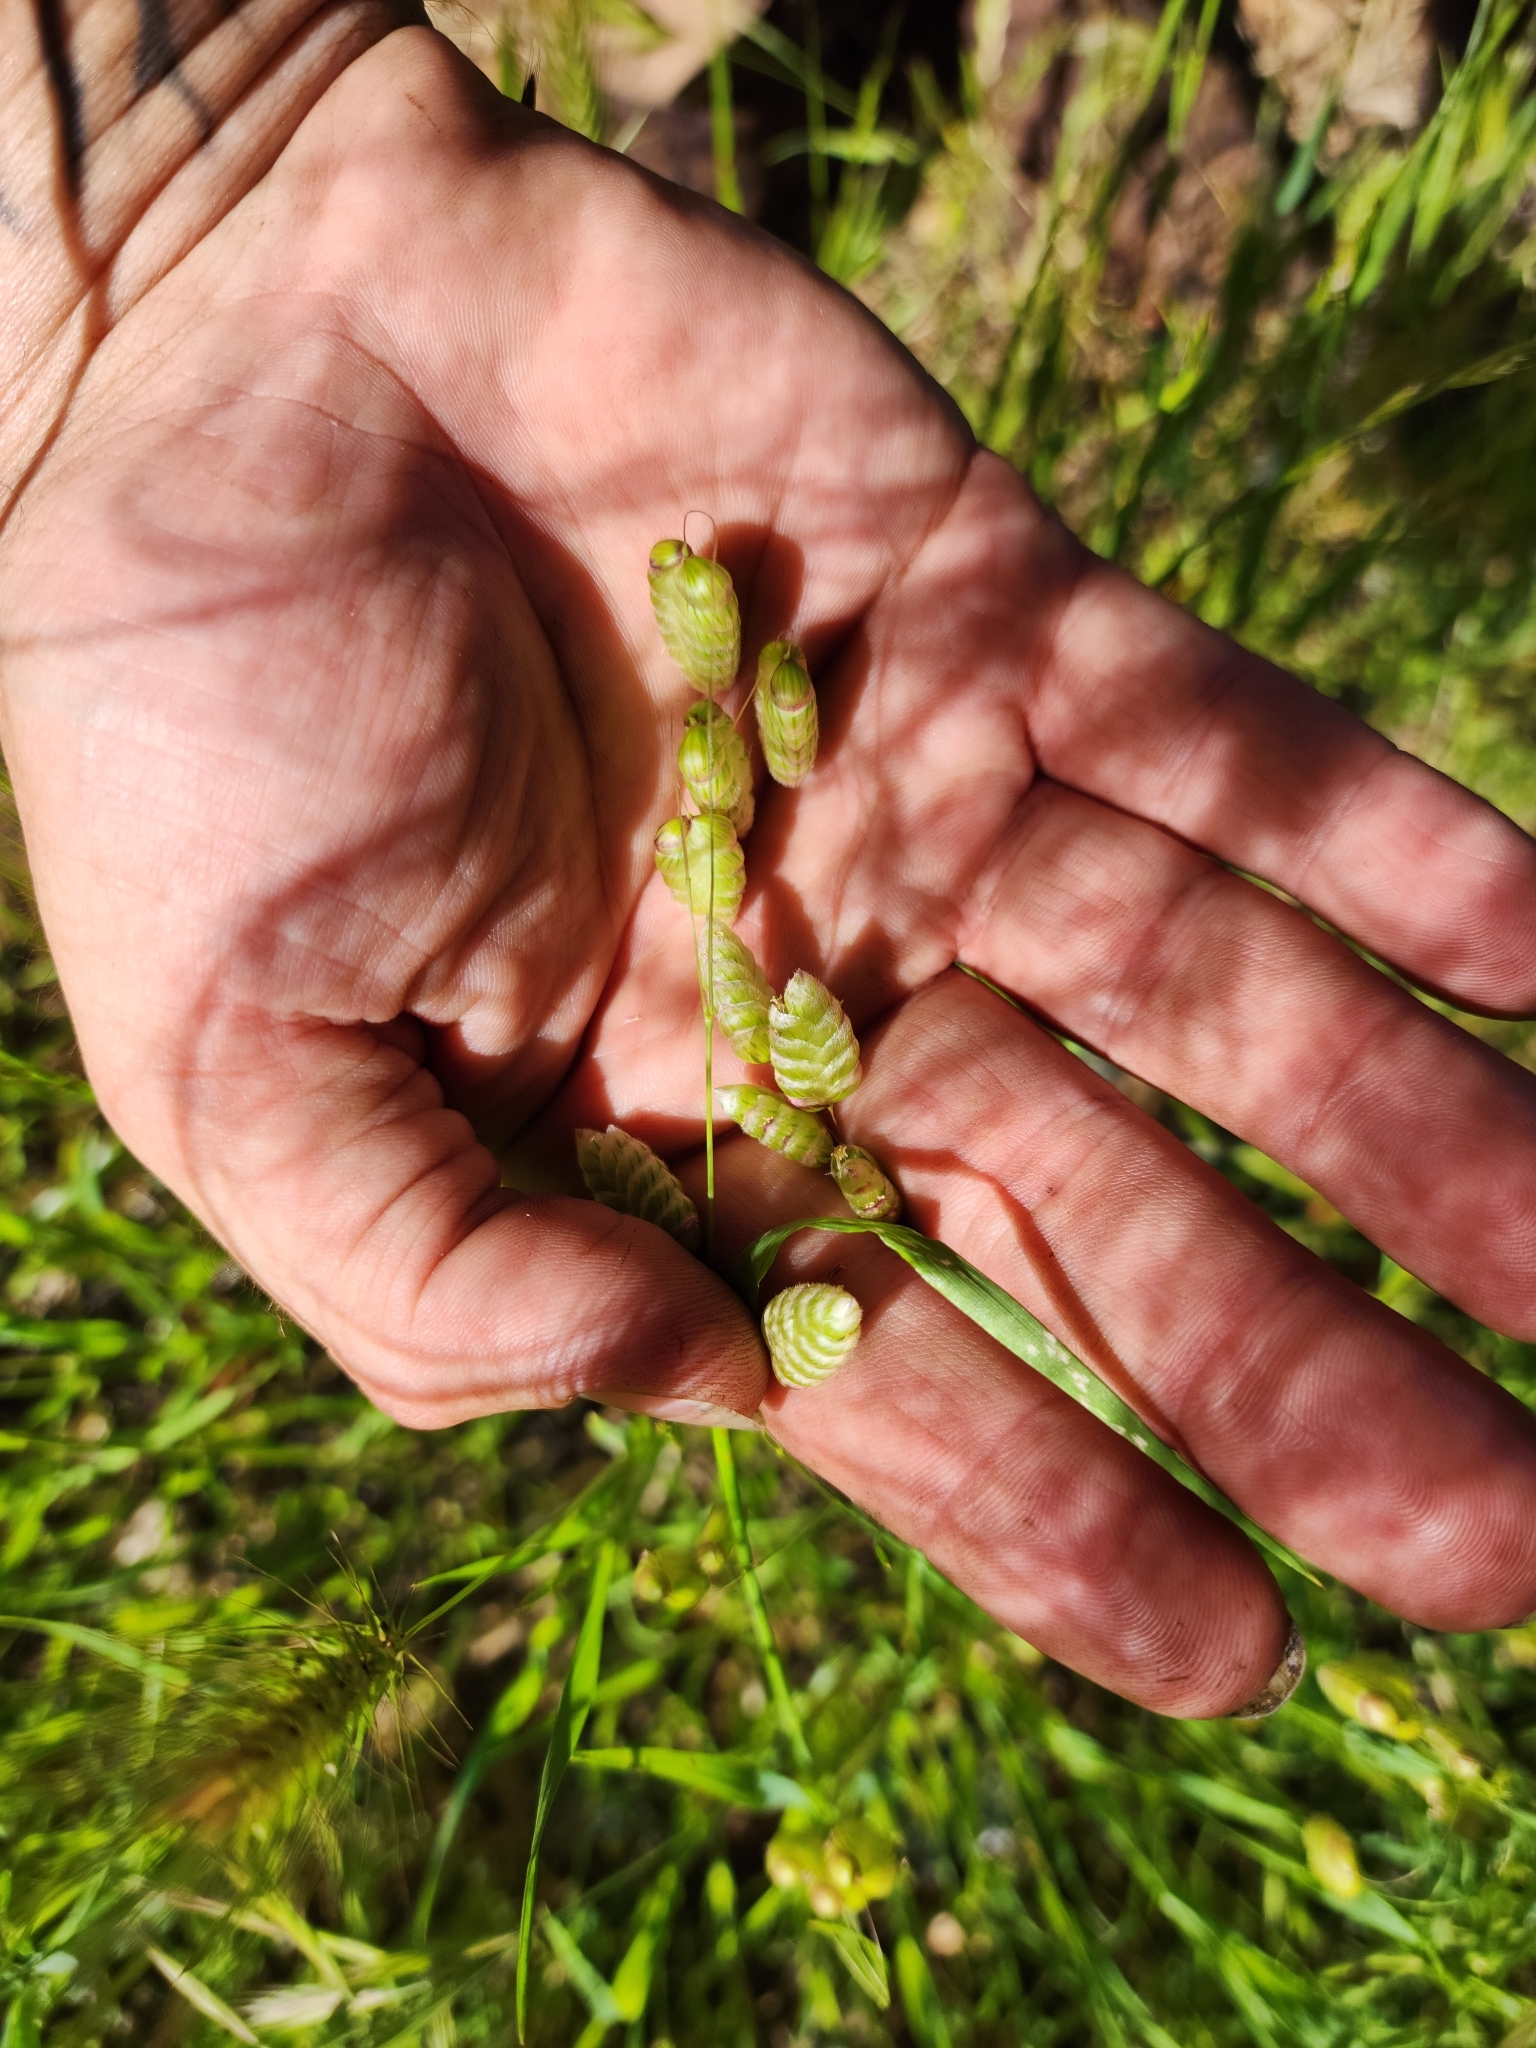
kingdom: Plantae
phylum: Tracheophyta
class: Liliopsida
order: Poales
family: Poaceae
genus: Briza
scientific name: Briza maxima
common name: Big quakinggrass
